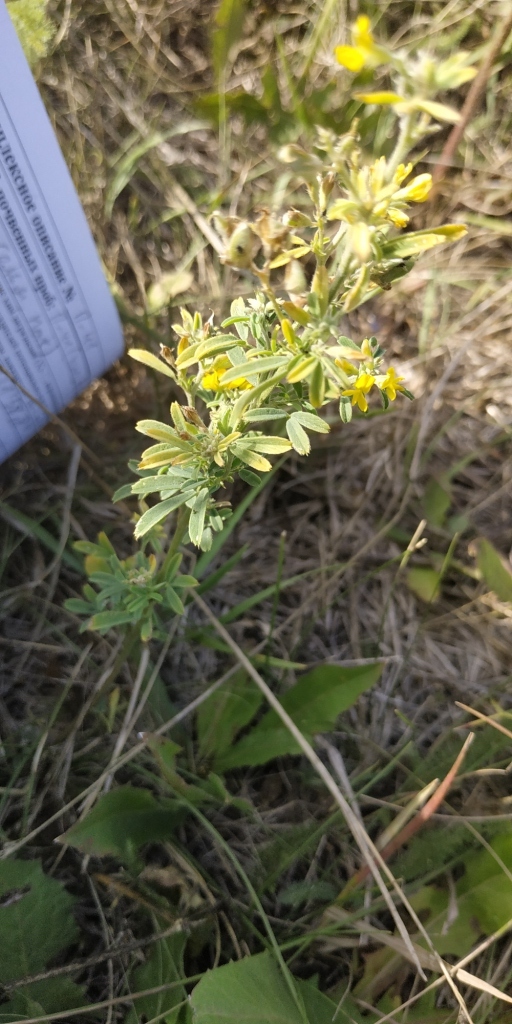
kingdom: Plantae
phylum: Tracheophyta
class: Magnoliopsida
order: Fabales
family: Fabaceae
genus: Medicago
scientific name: Medicago falcata
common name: Sickle medick
